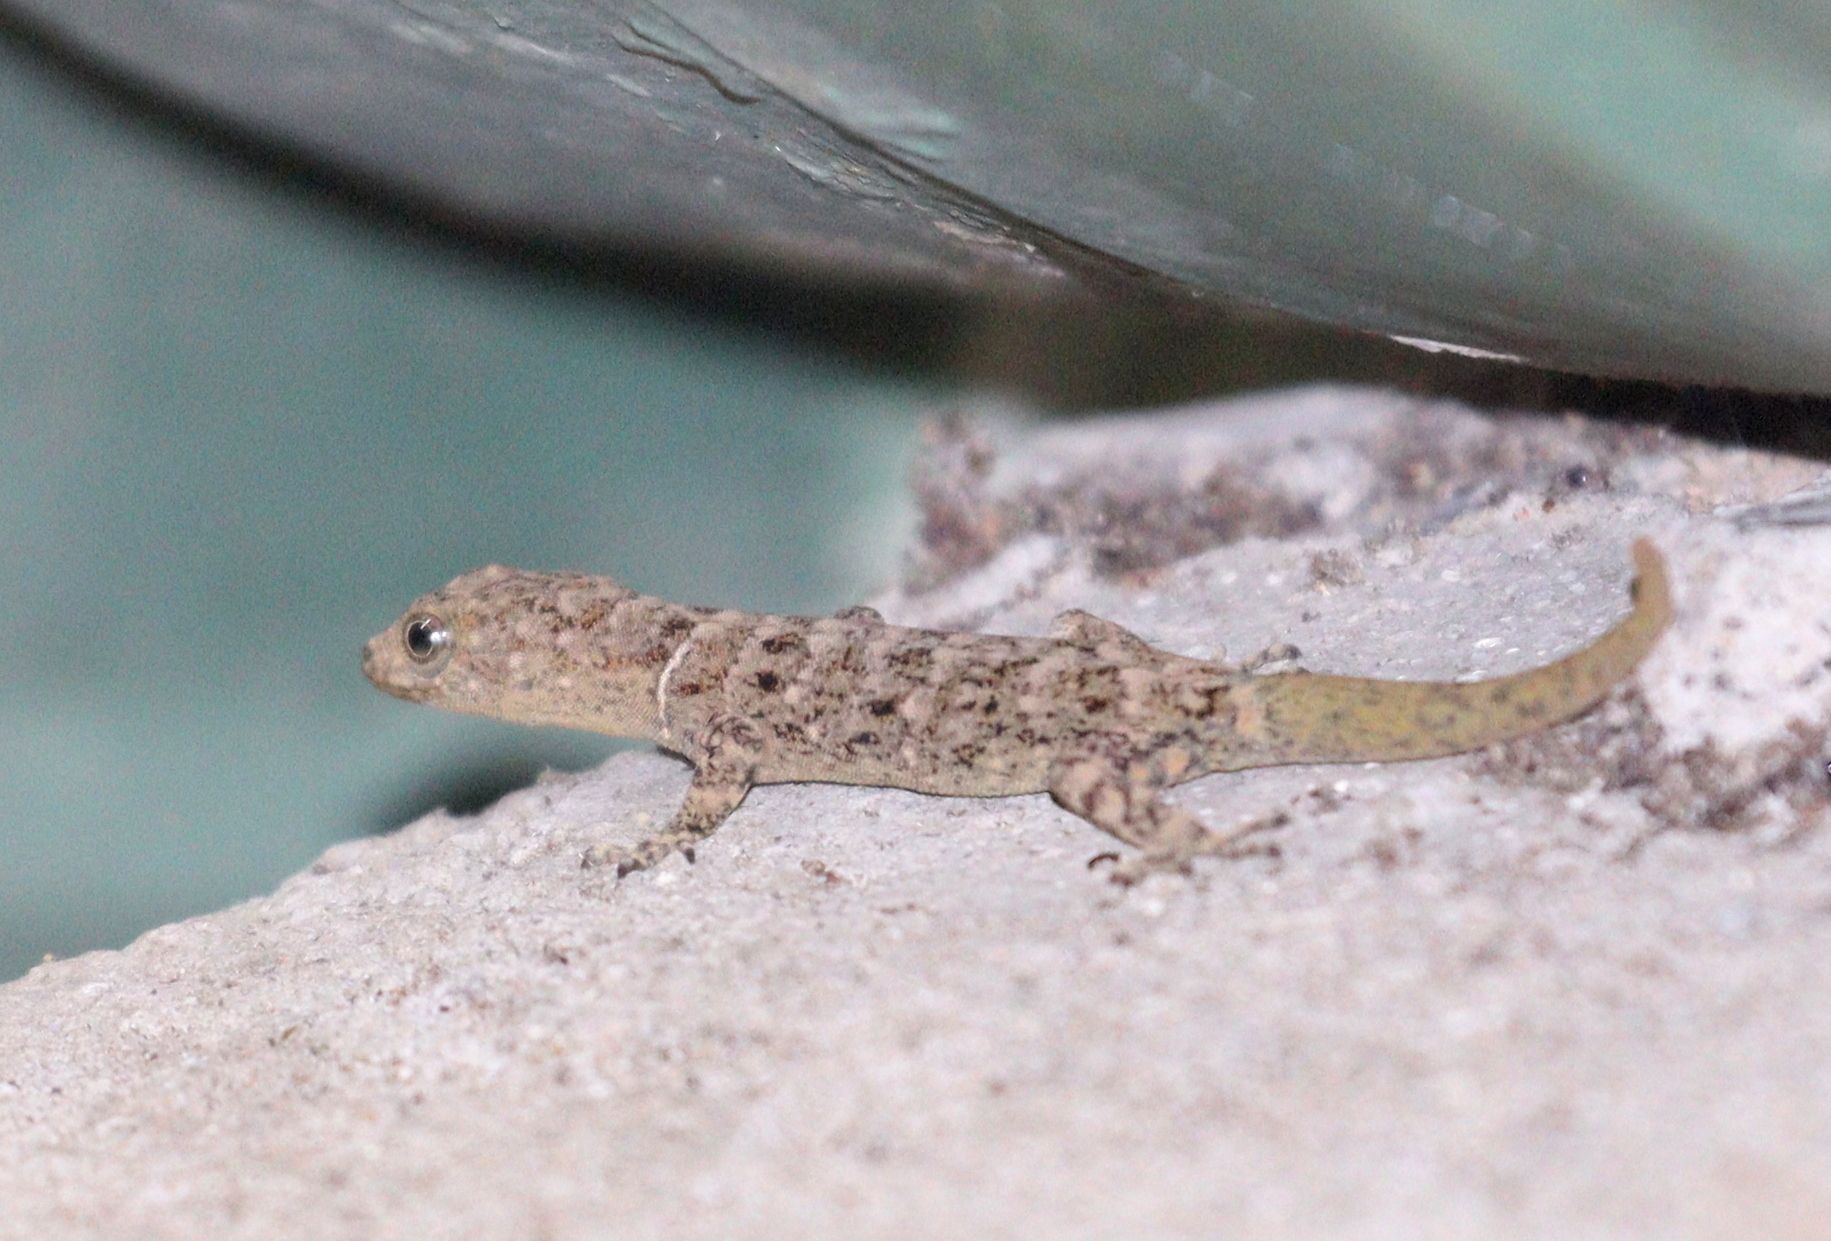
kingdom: Animalia
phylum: Chordata
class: Squamata
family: Sphaerodactylidae
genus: Gonatodes
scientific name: Gonatodes albogularis
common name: Yellow-headed gecko
